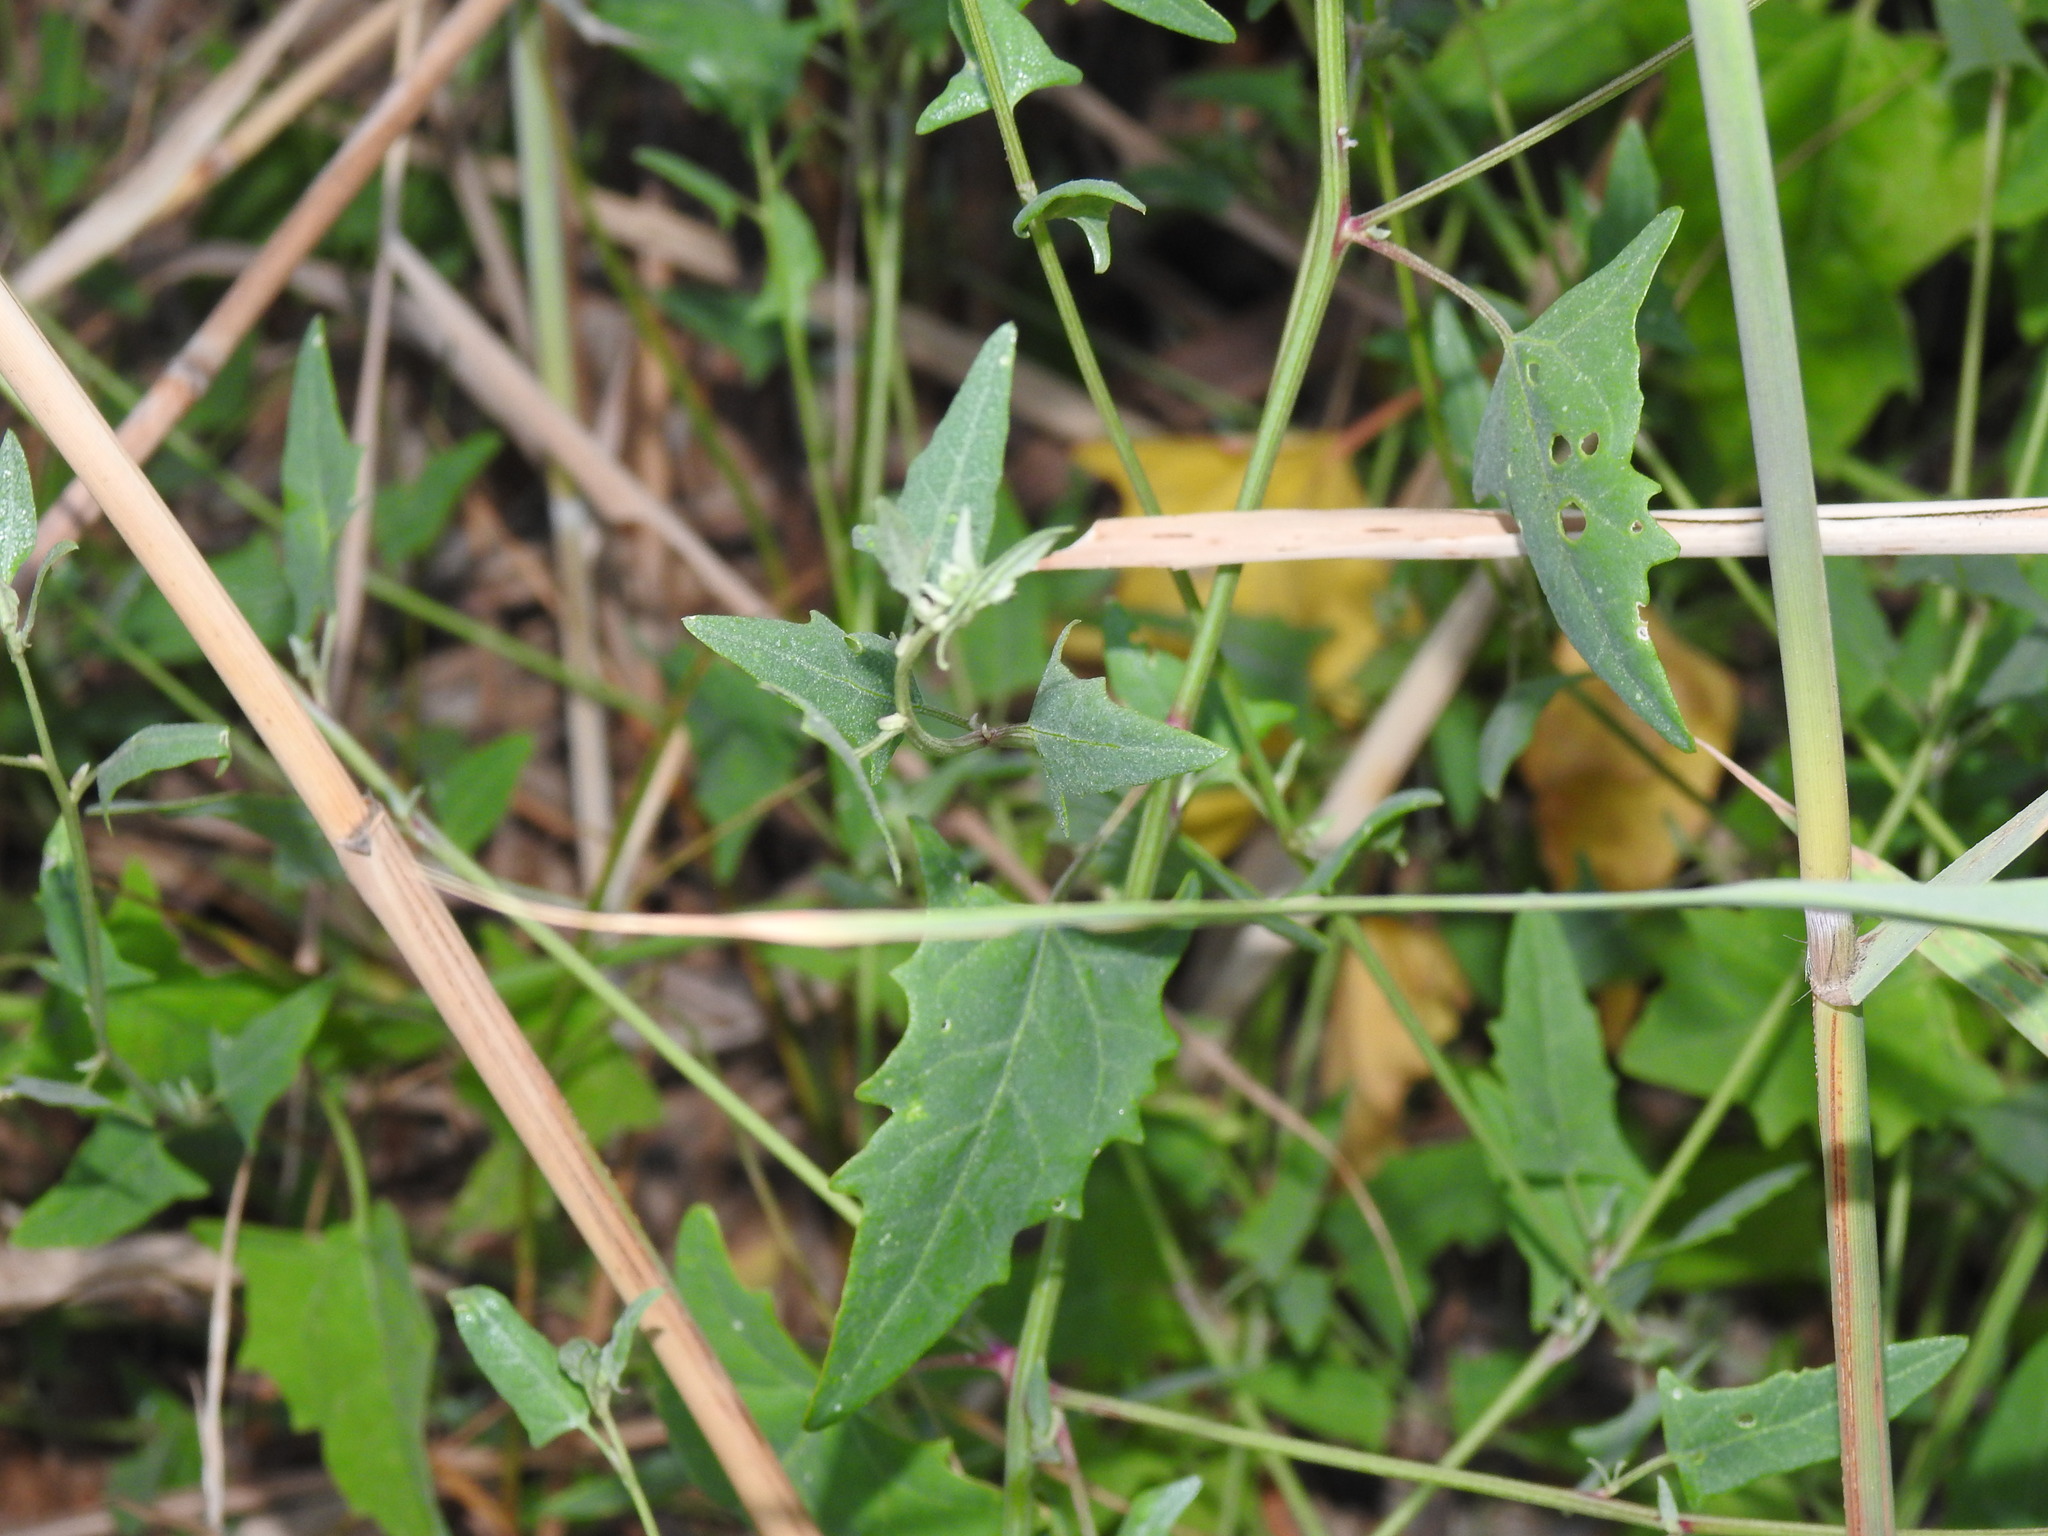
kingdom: Plantae
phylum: Tracheophyta
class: Magnoliopsida
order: Caryophyllales
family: Amaranthaceae
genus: Atriplex
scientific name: Atriplex prostrata
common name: Spear-leaved orache
